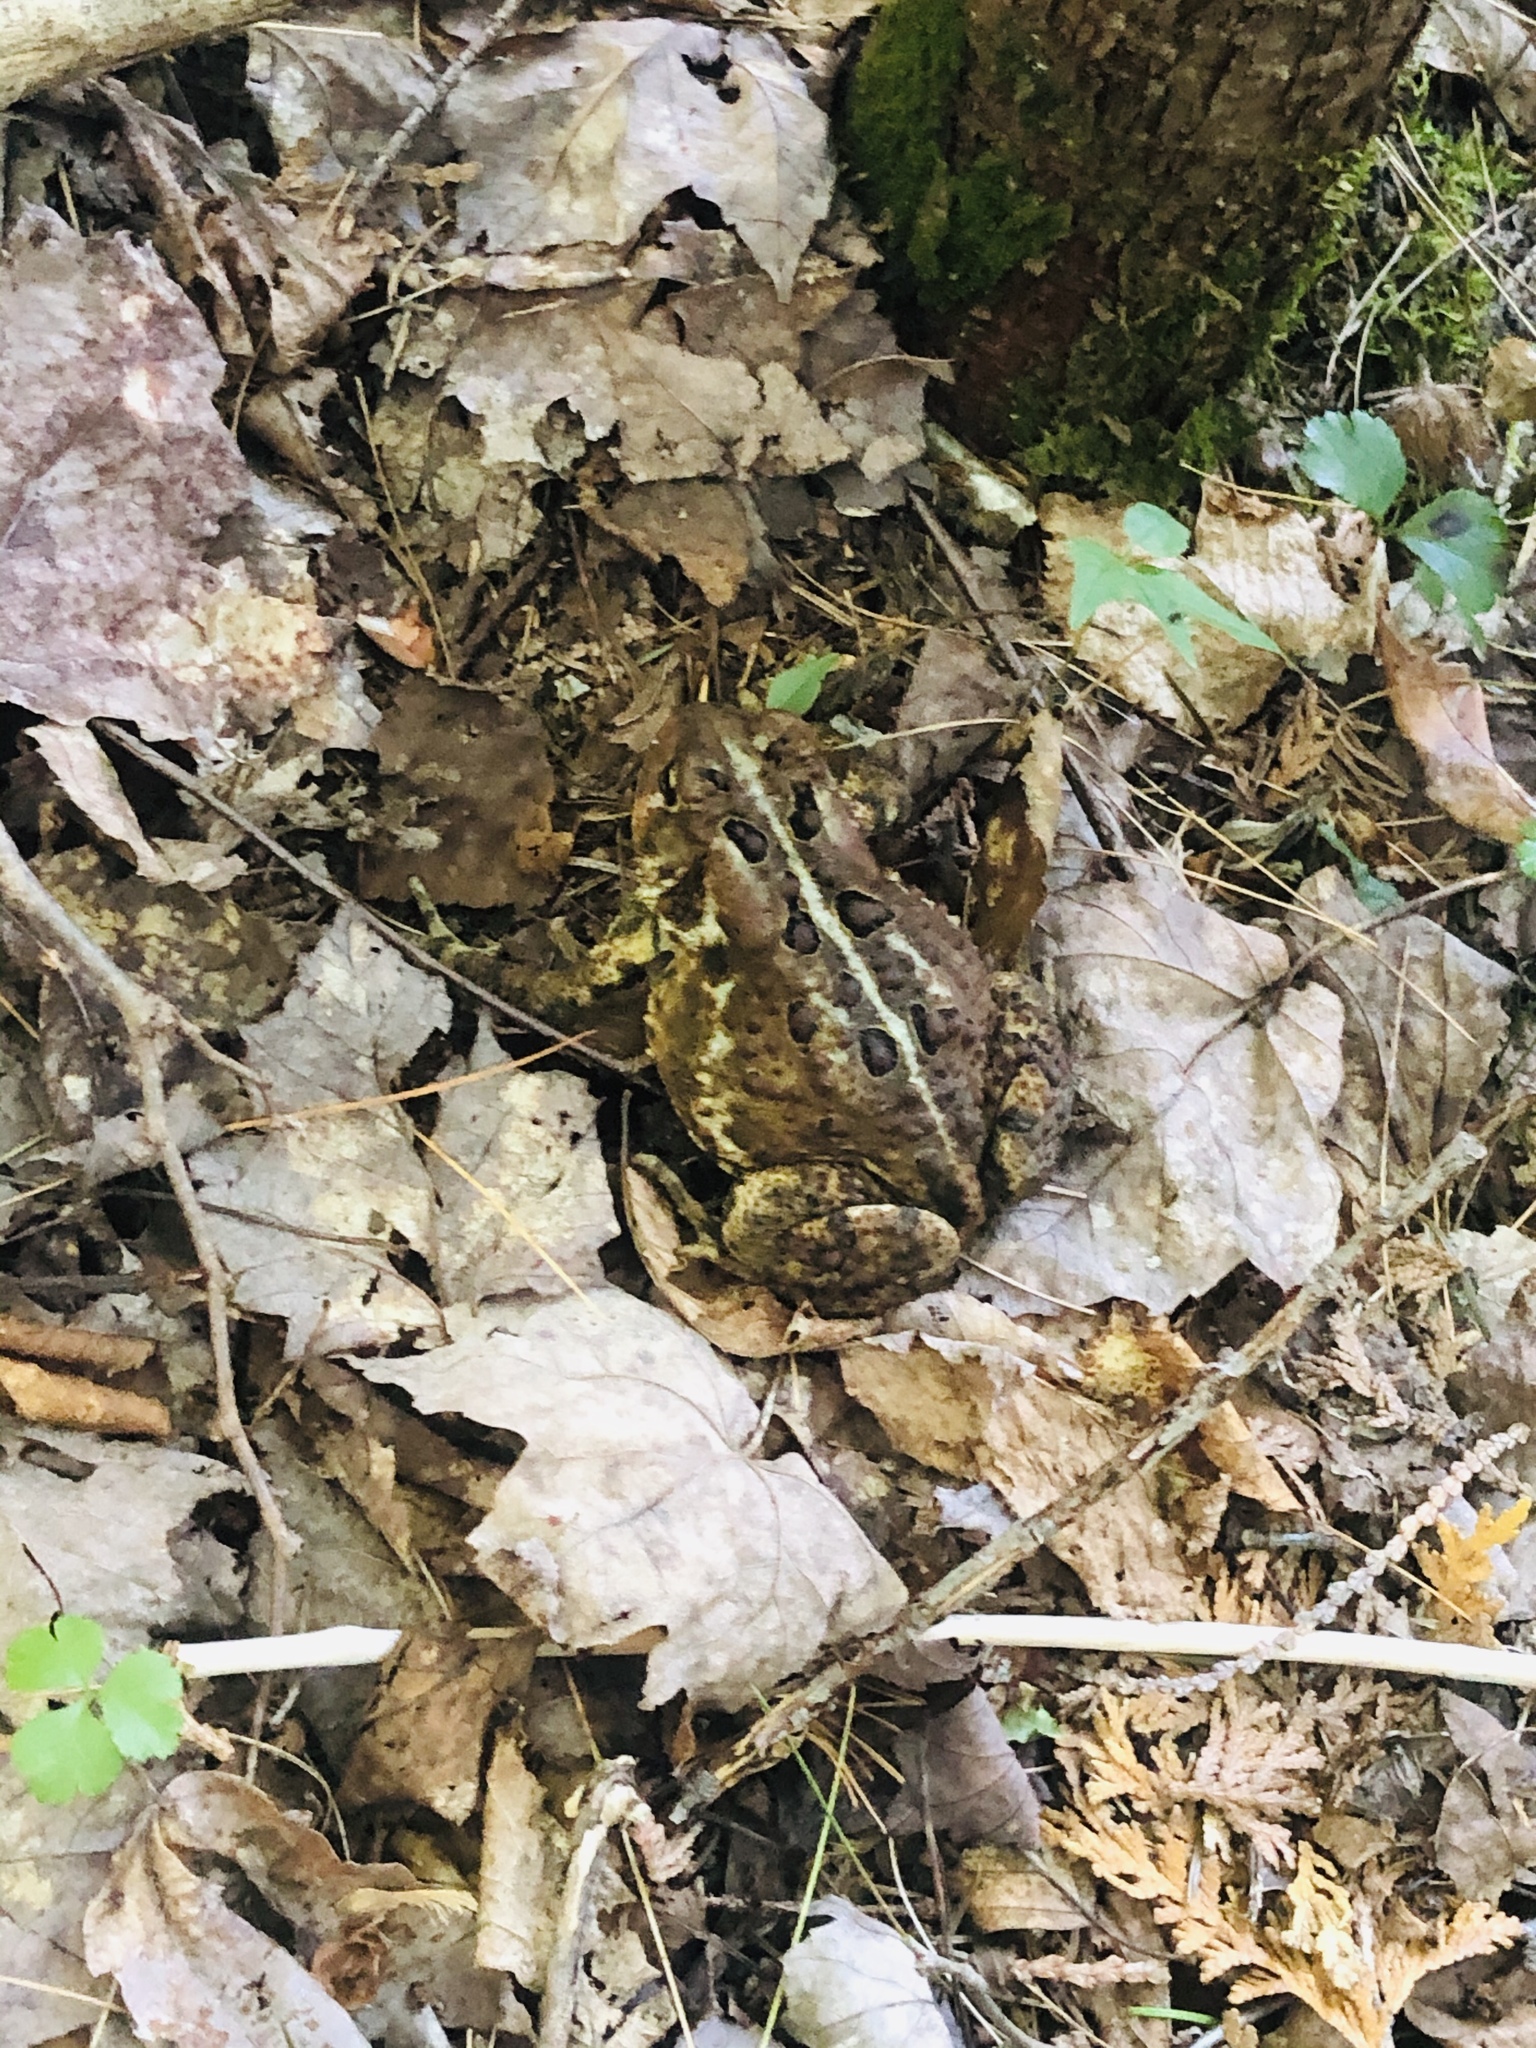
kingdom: Animalia
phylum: Chordata
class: Amphibia
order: Anura
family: Bufonidae
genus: Anaxyrus
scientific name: Anaxyrus americanus
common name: American toad
